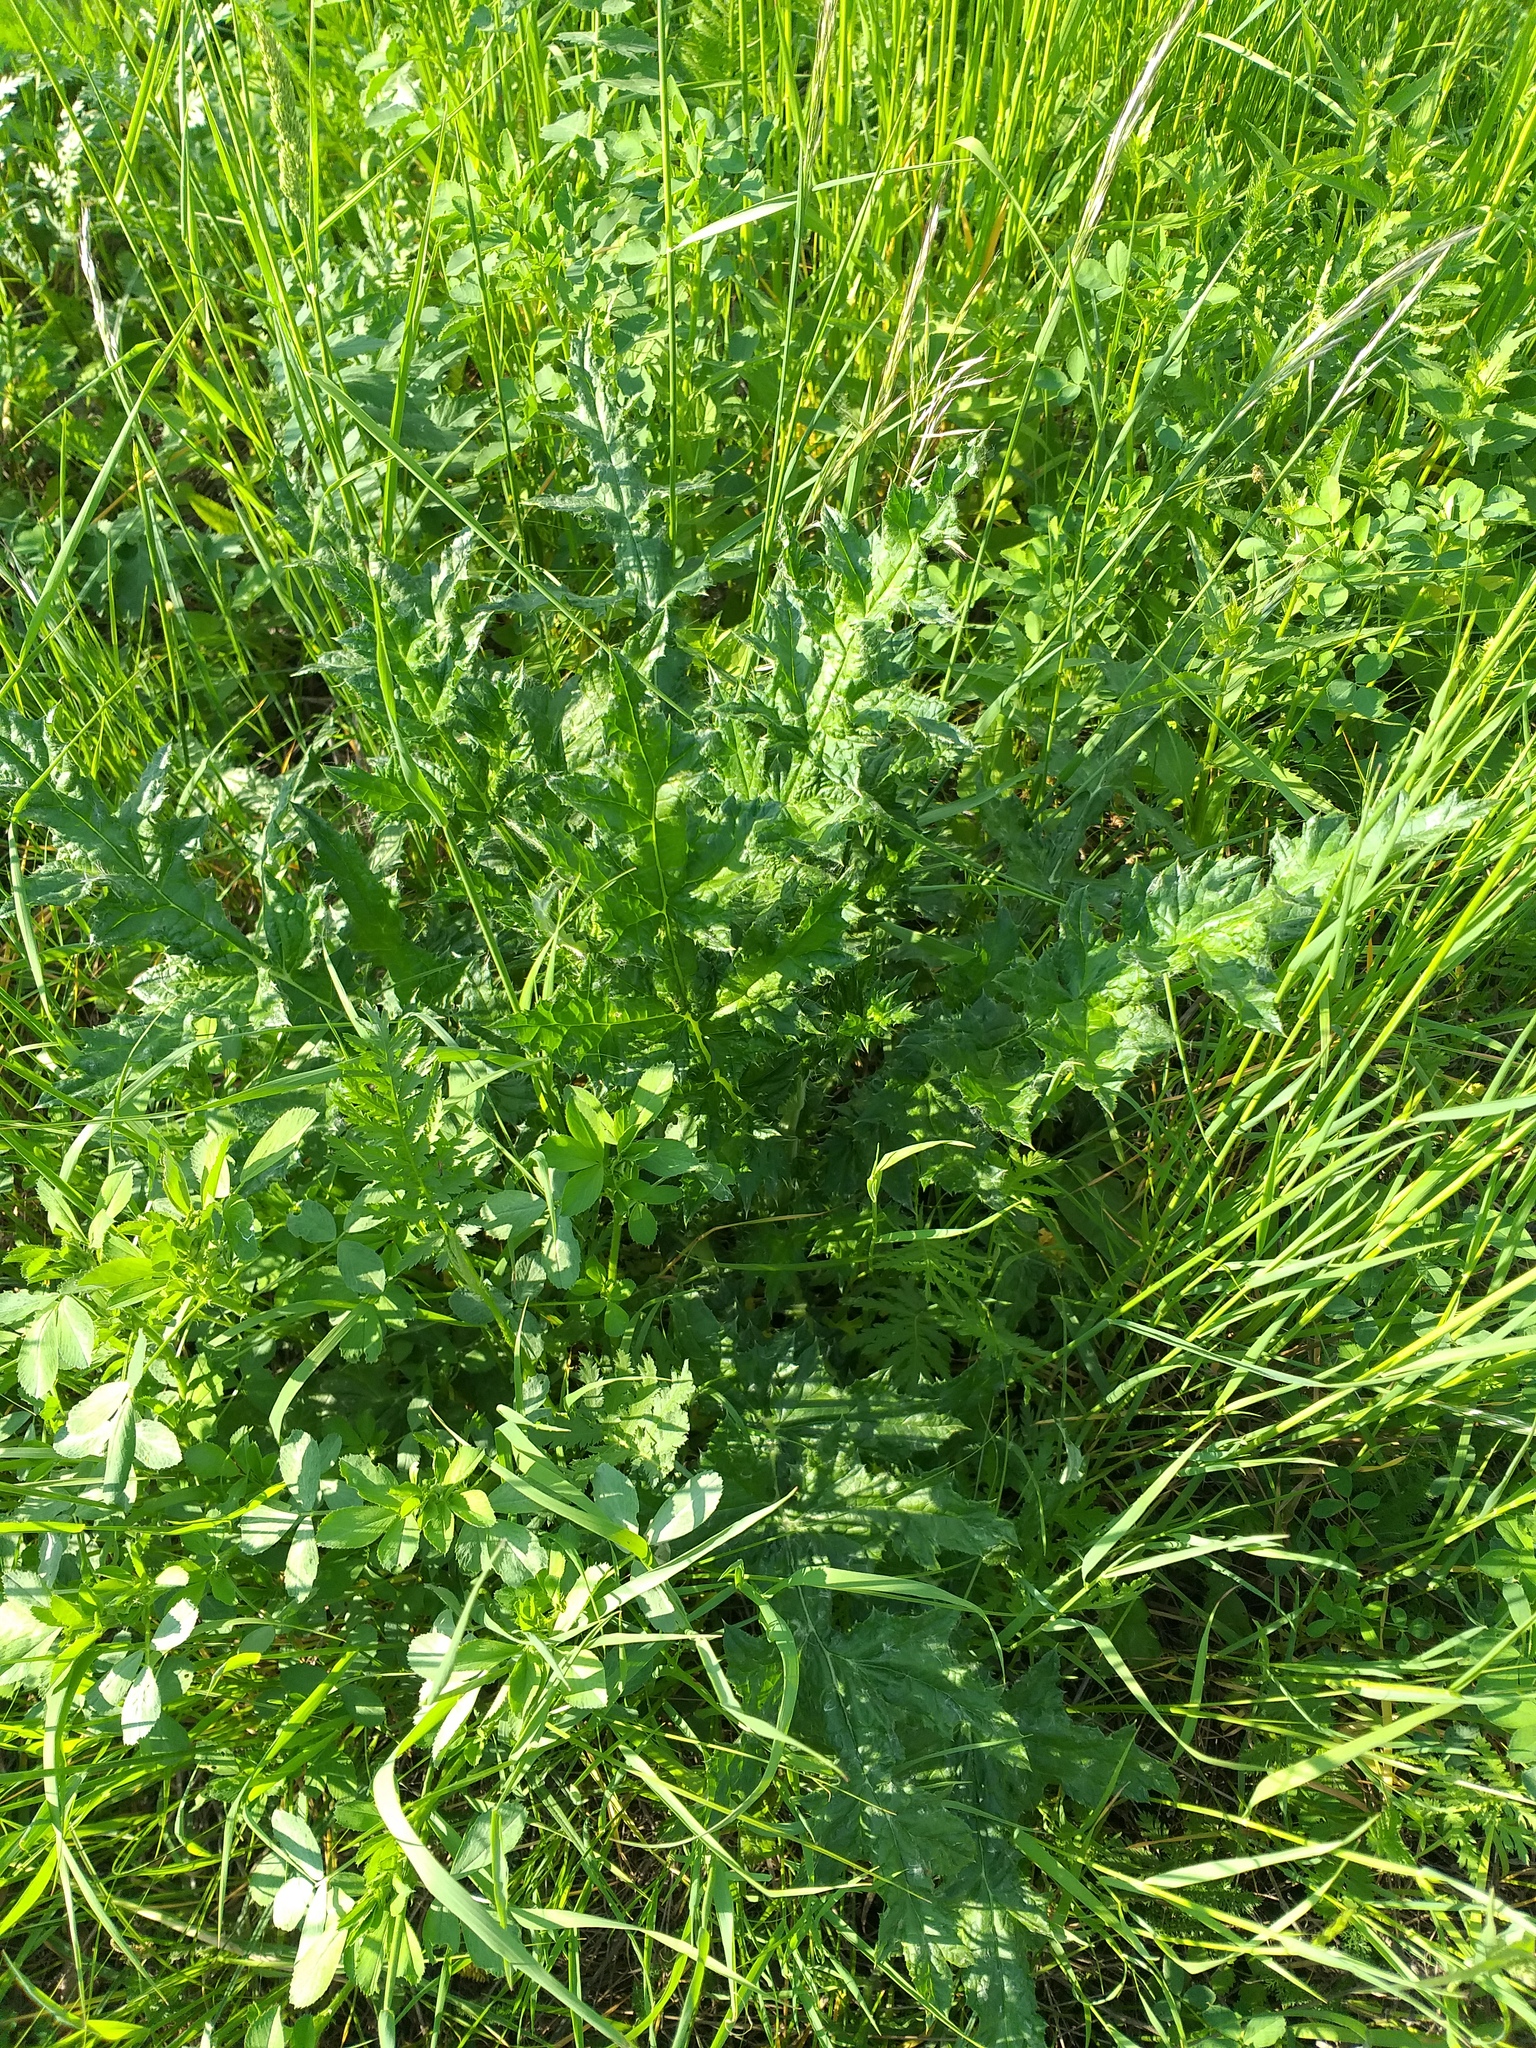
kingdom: Plantae
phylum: Tracheophyta
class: Magnoliopsida
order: Asterales
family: Asteraceae
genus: Echinops
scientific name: Echinops sphaerocephalus
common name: Glandular globe-thistle
